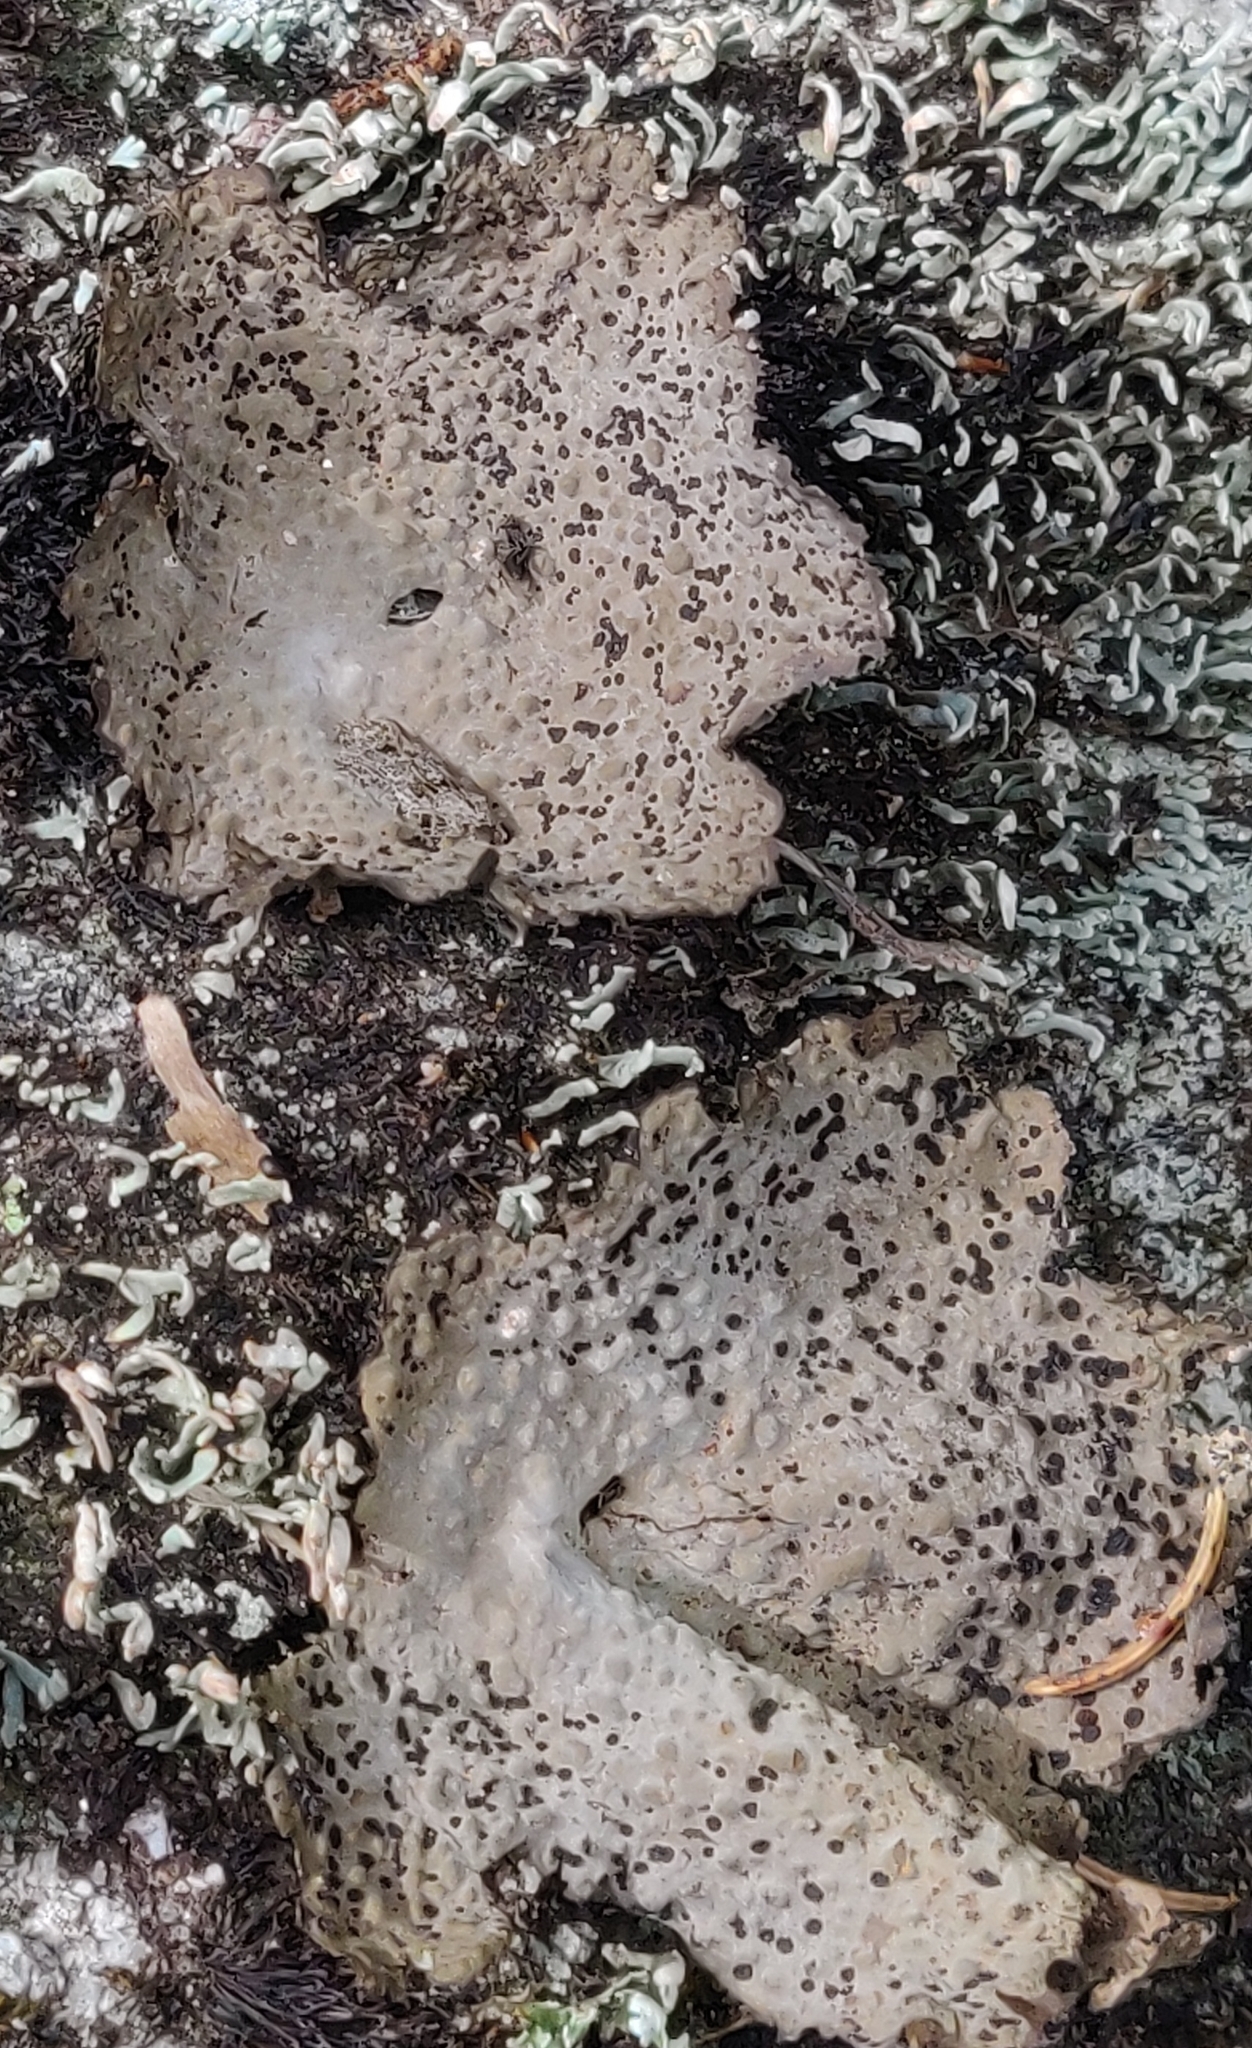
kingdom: Fungi
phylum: Ascomycota
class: Lecanoromycetes
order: Umbilicariales
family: Umbilicariaceae
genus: Lasallia
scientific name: Lasallia papulosa
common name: Common toadskin lichen
